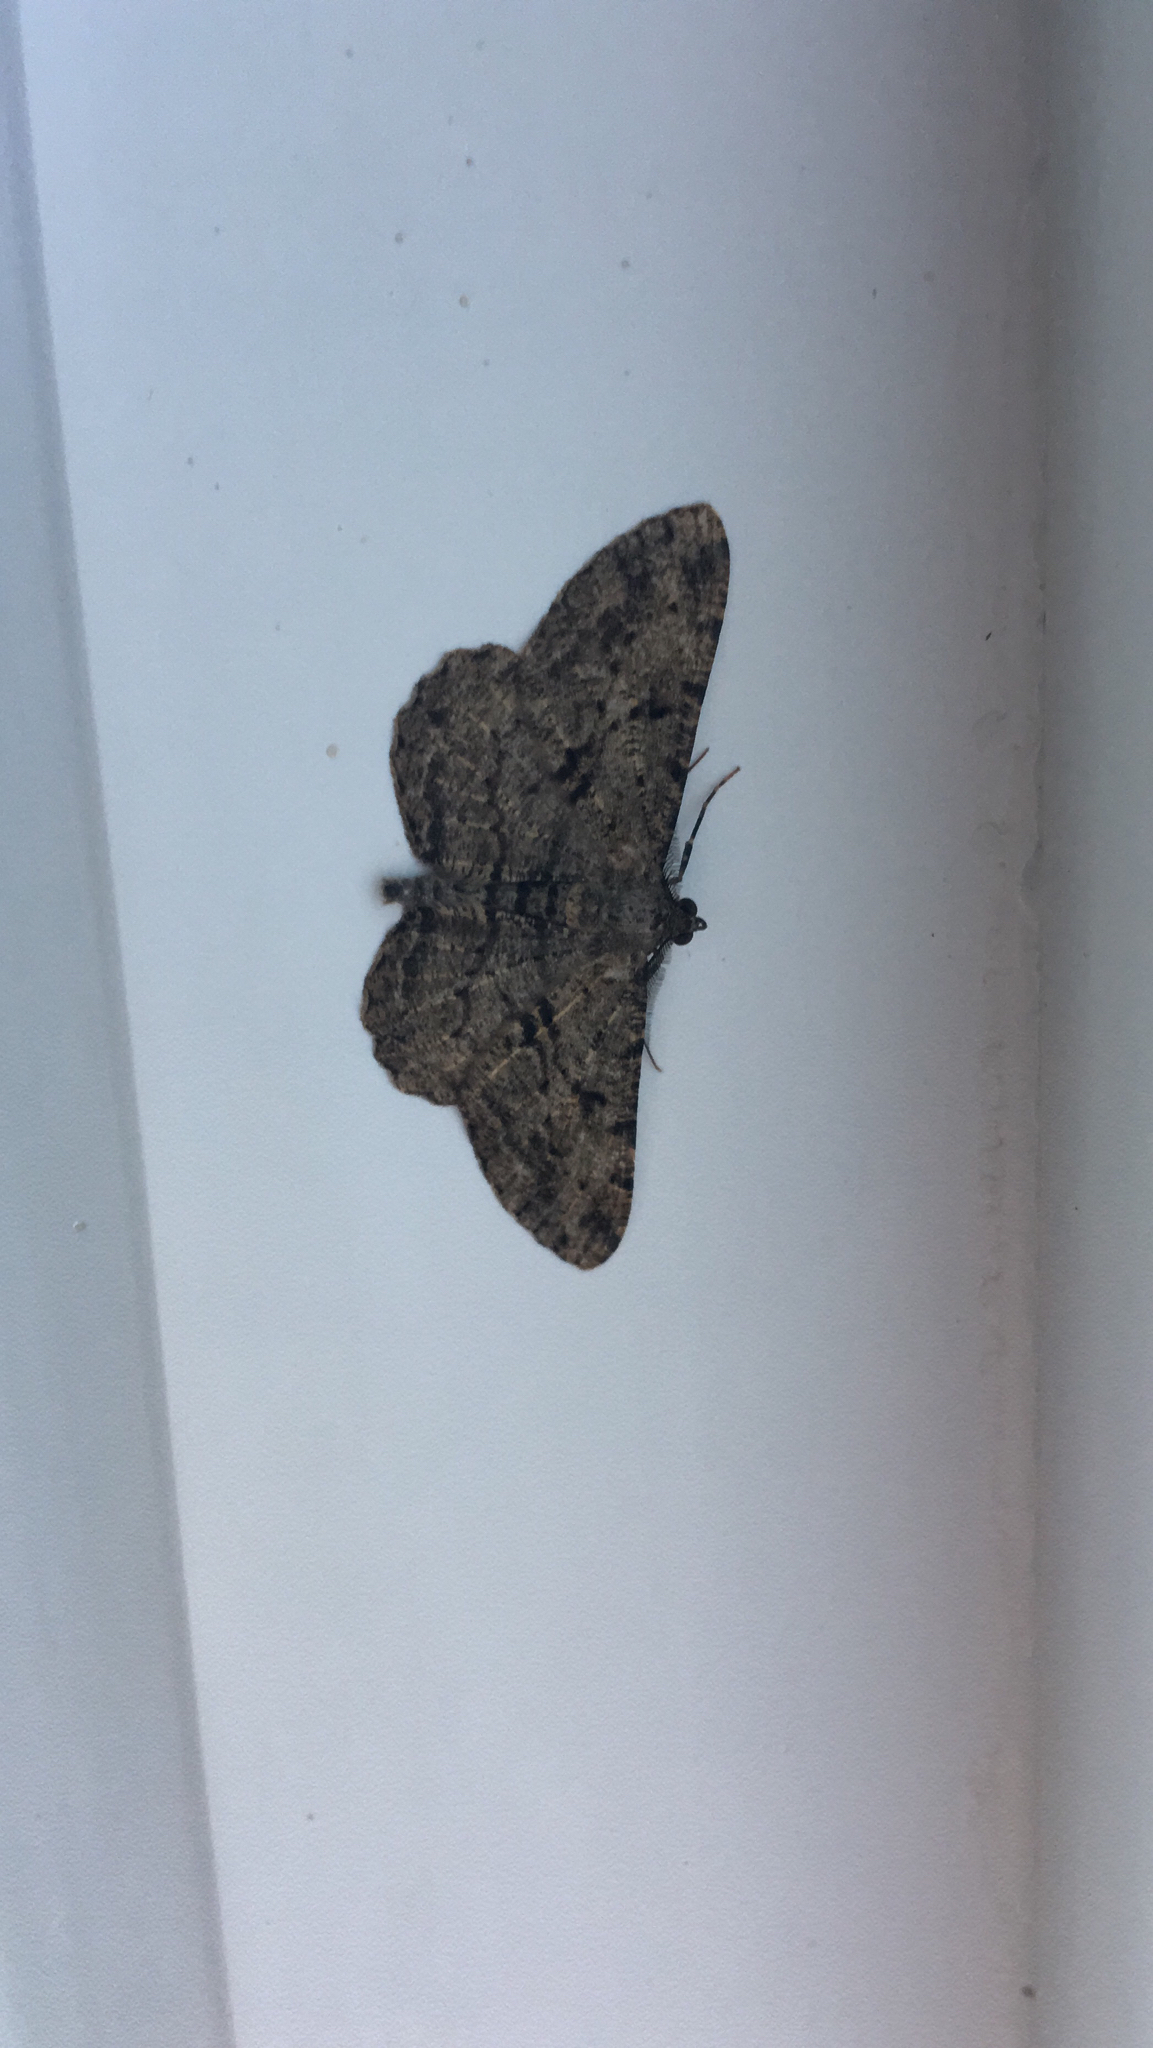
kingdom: Animalia
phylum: Arthropoda
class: Insecta
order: Lepidoptera
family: Geometridae
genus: Peribatodes
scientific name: Peribatodes rhomboidaria
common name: Willow beauty
